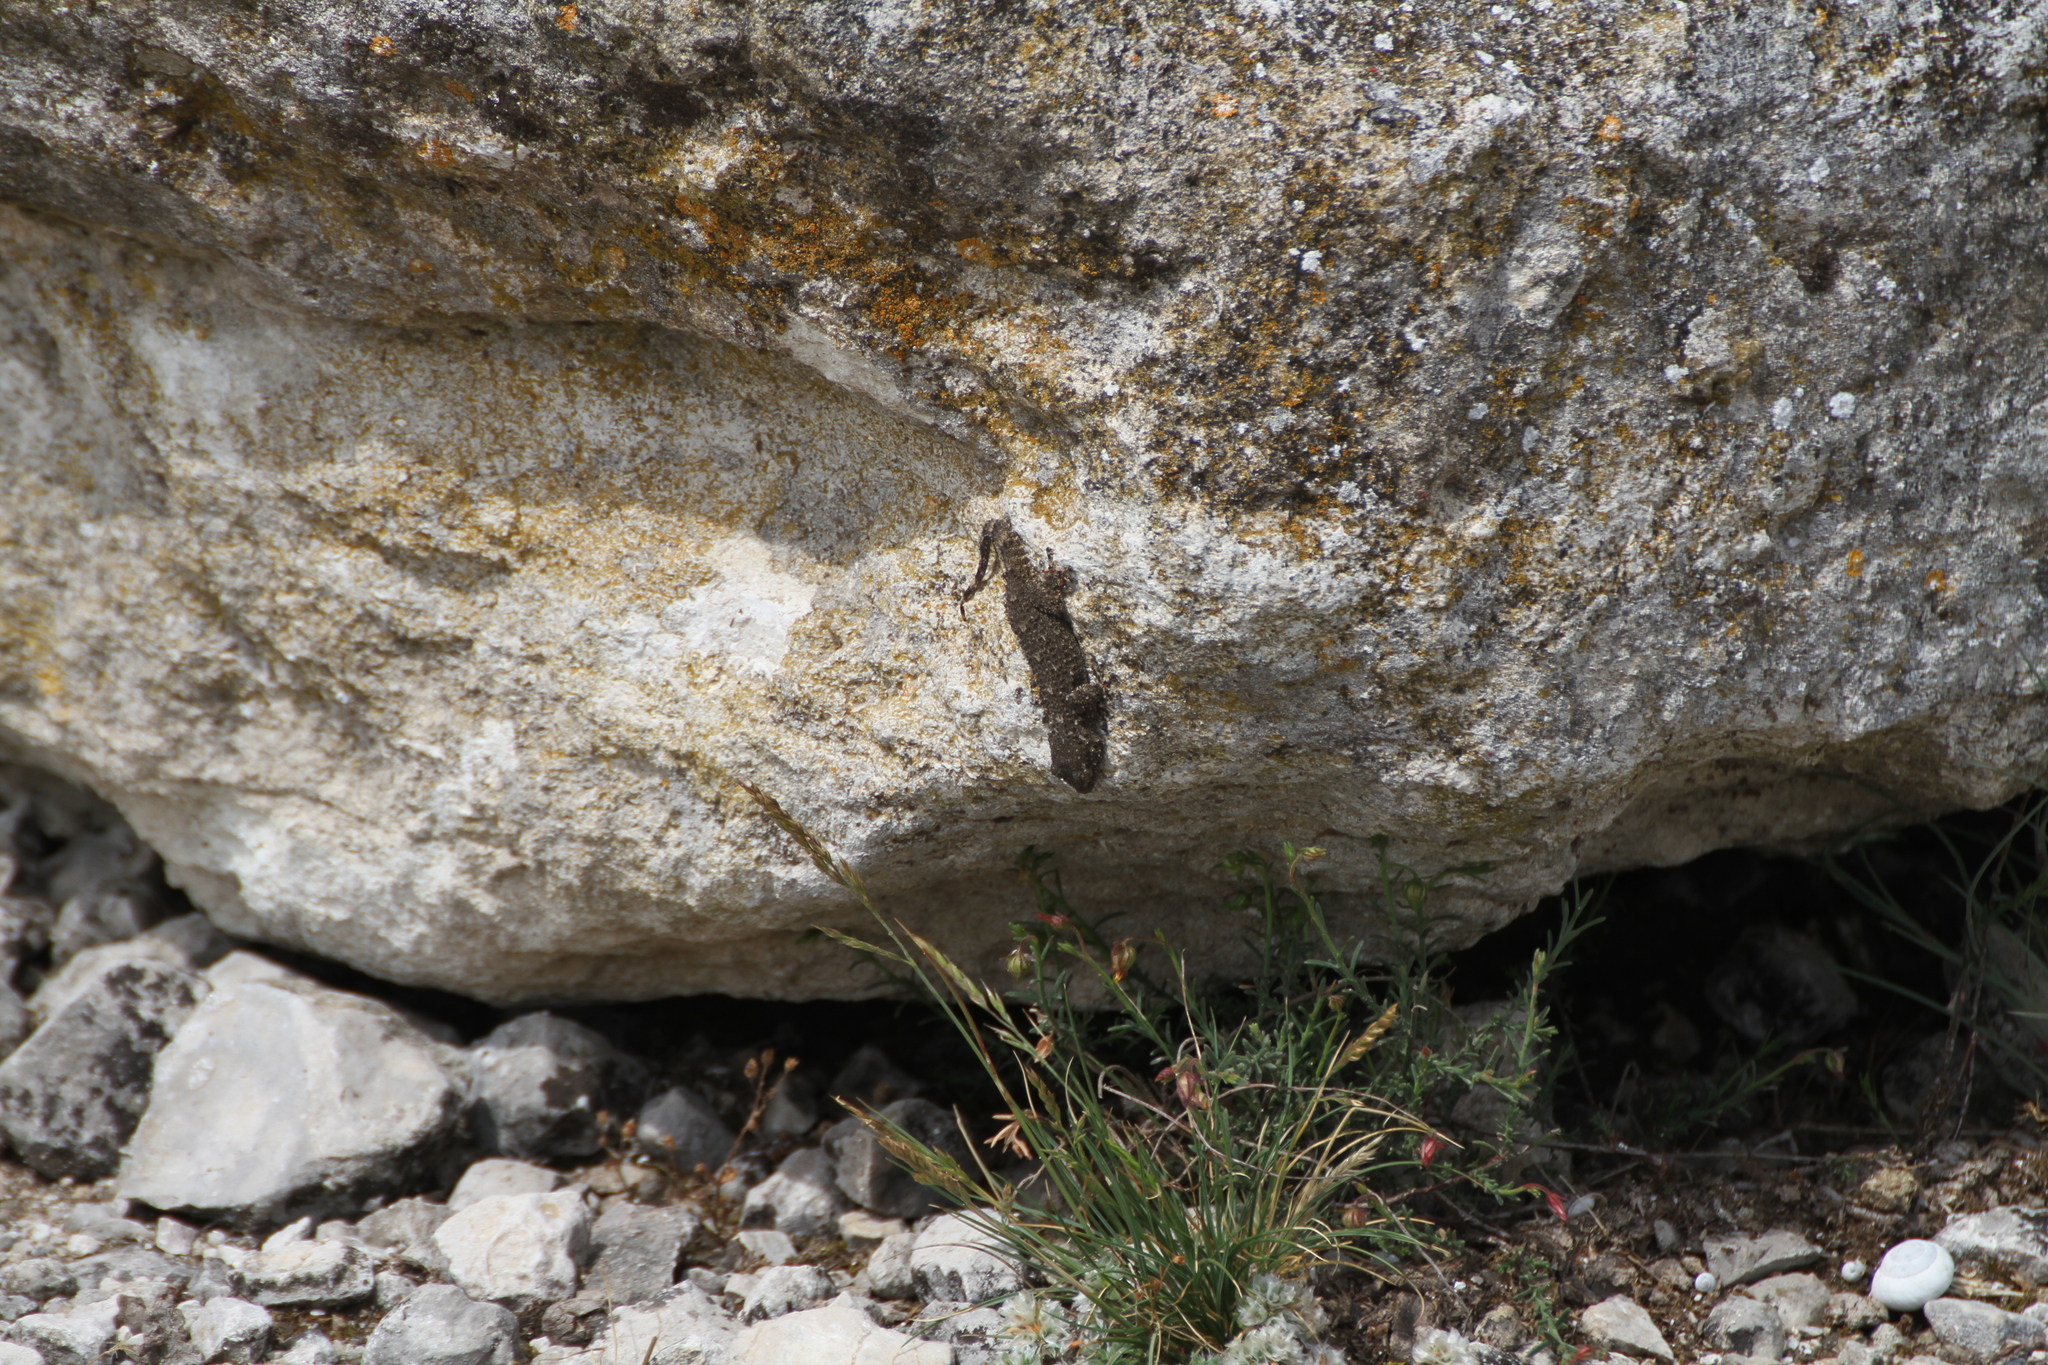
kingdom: Animalia
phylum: Chordata
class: Squamata
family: Phyllodactylidae
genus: Tarentola
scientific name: Tarentola mauritanica
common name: Moorish gecko
